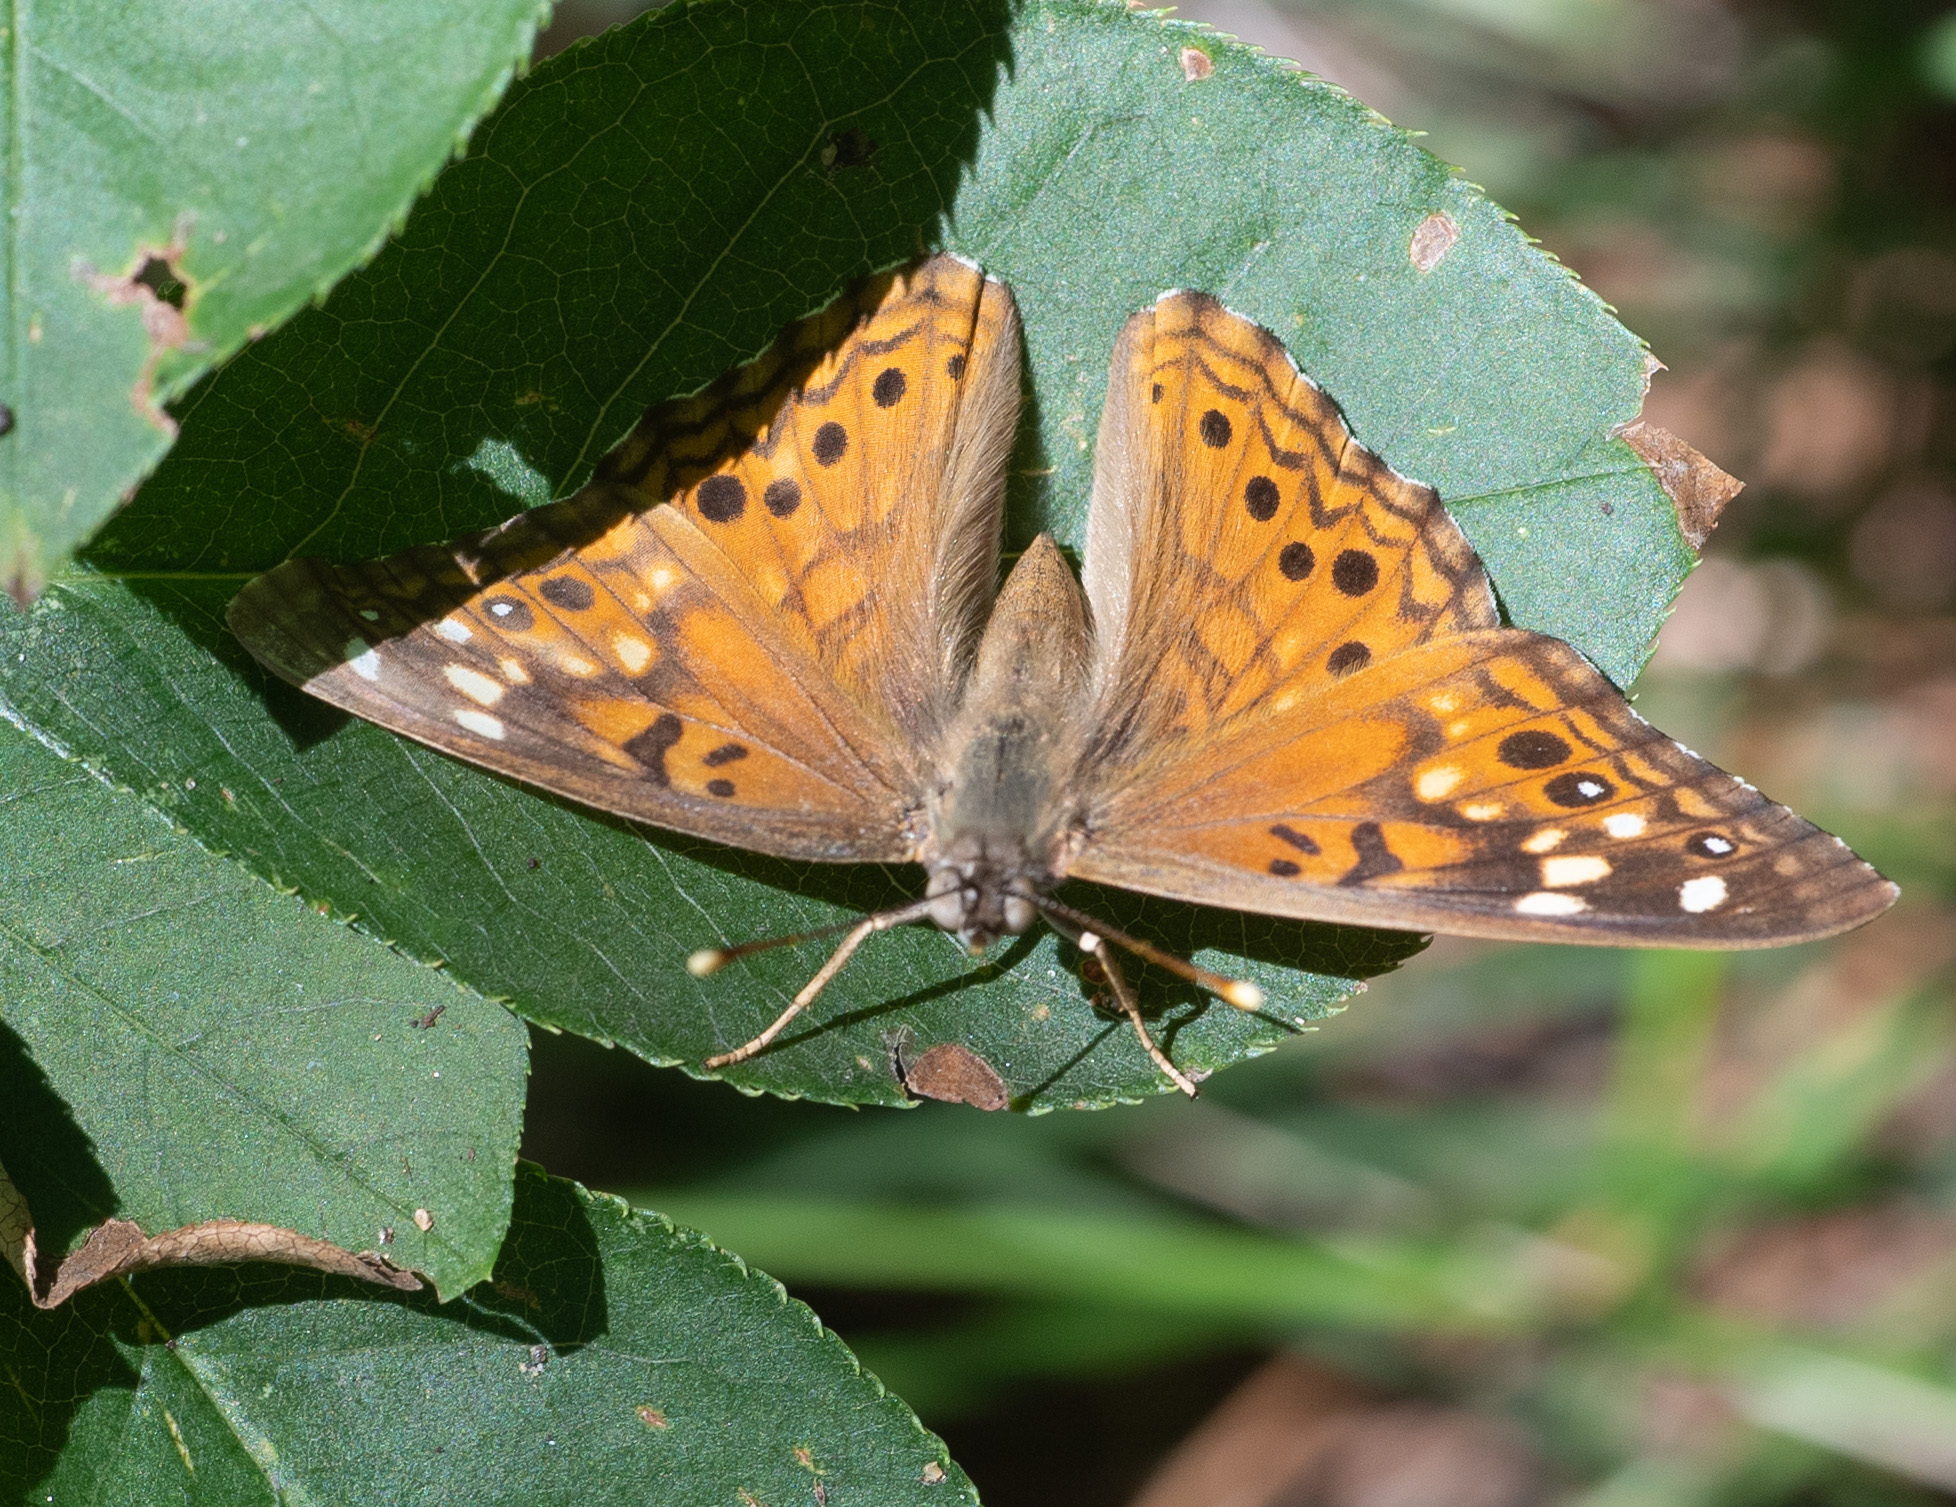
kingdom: Animalia
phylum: Arthropoda
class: Insecta
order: Lepidoptera
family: Nymphalidae
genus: Asterocampa
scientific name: Asterocampa celtis
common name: Hackberry emperor
